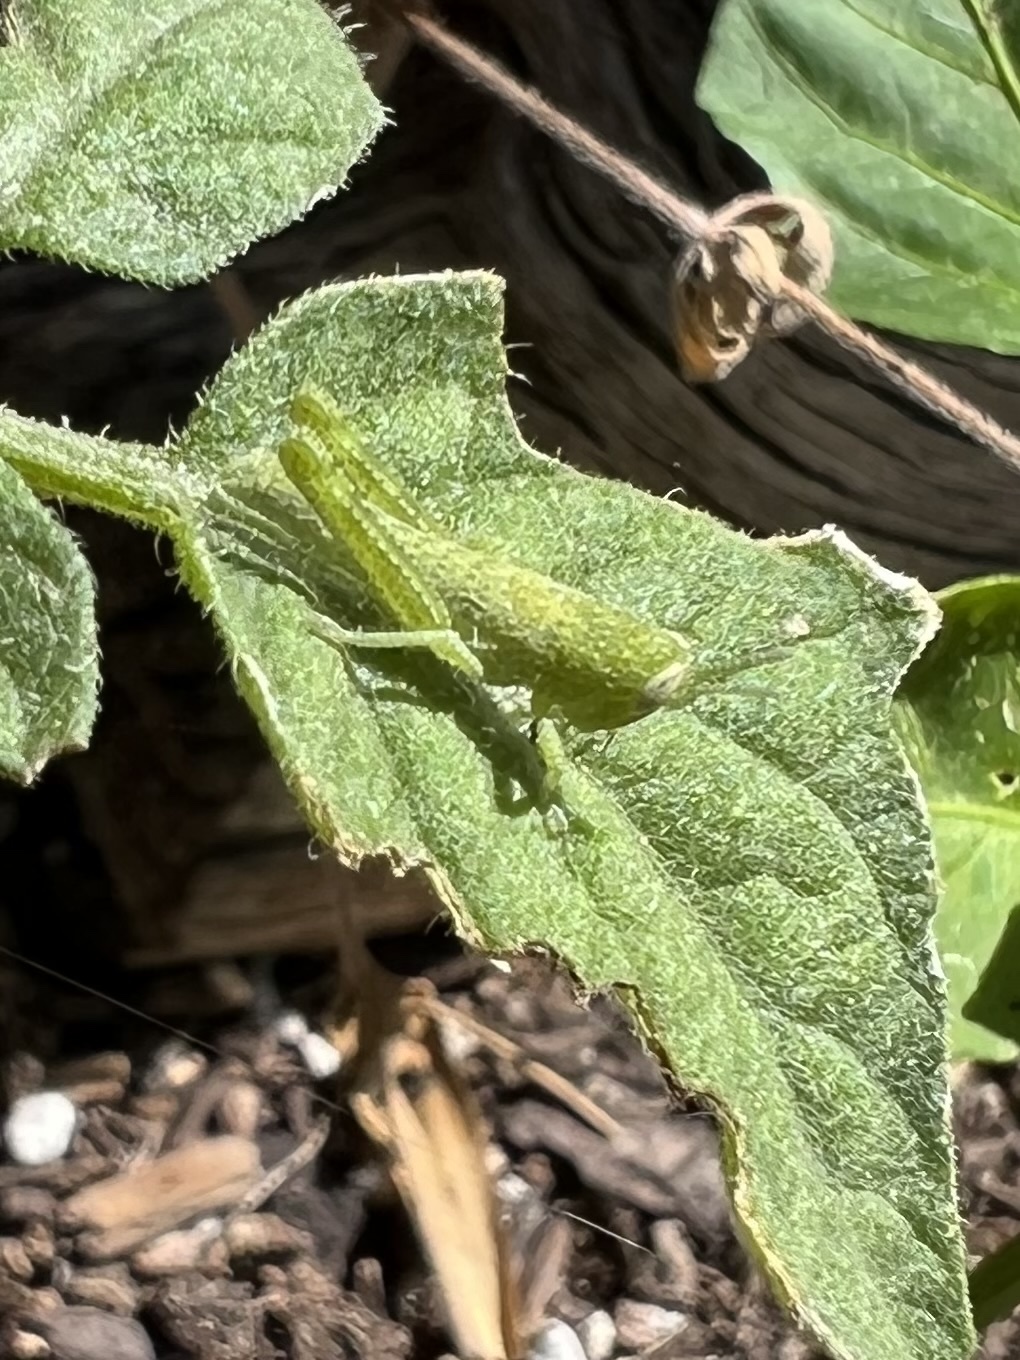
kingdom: Animalia
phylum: Arthropoda
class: Insecta
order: Orthoptera
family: Acrididae
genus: Schistocerca
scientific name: Schistocerca nitens
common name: Vagrant grasshopper
